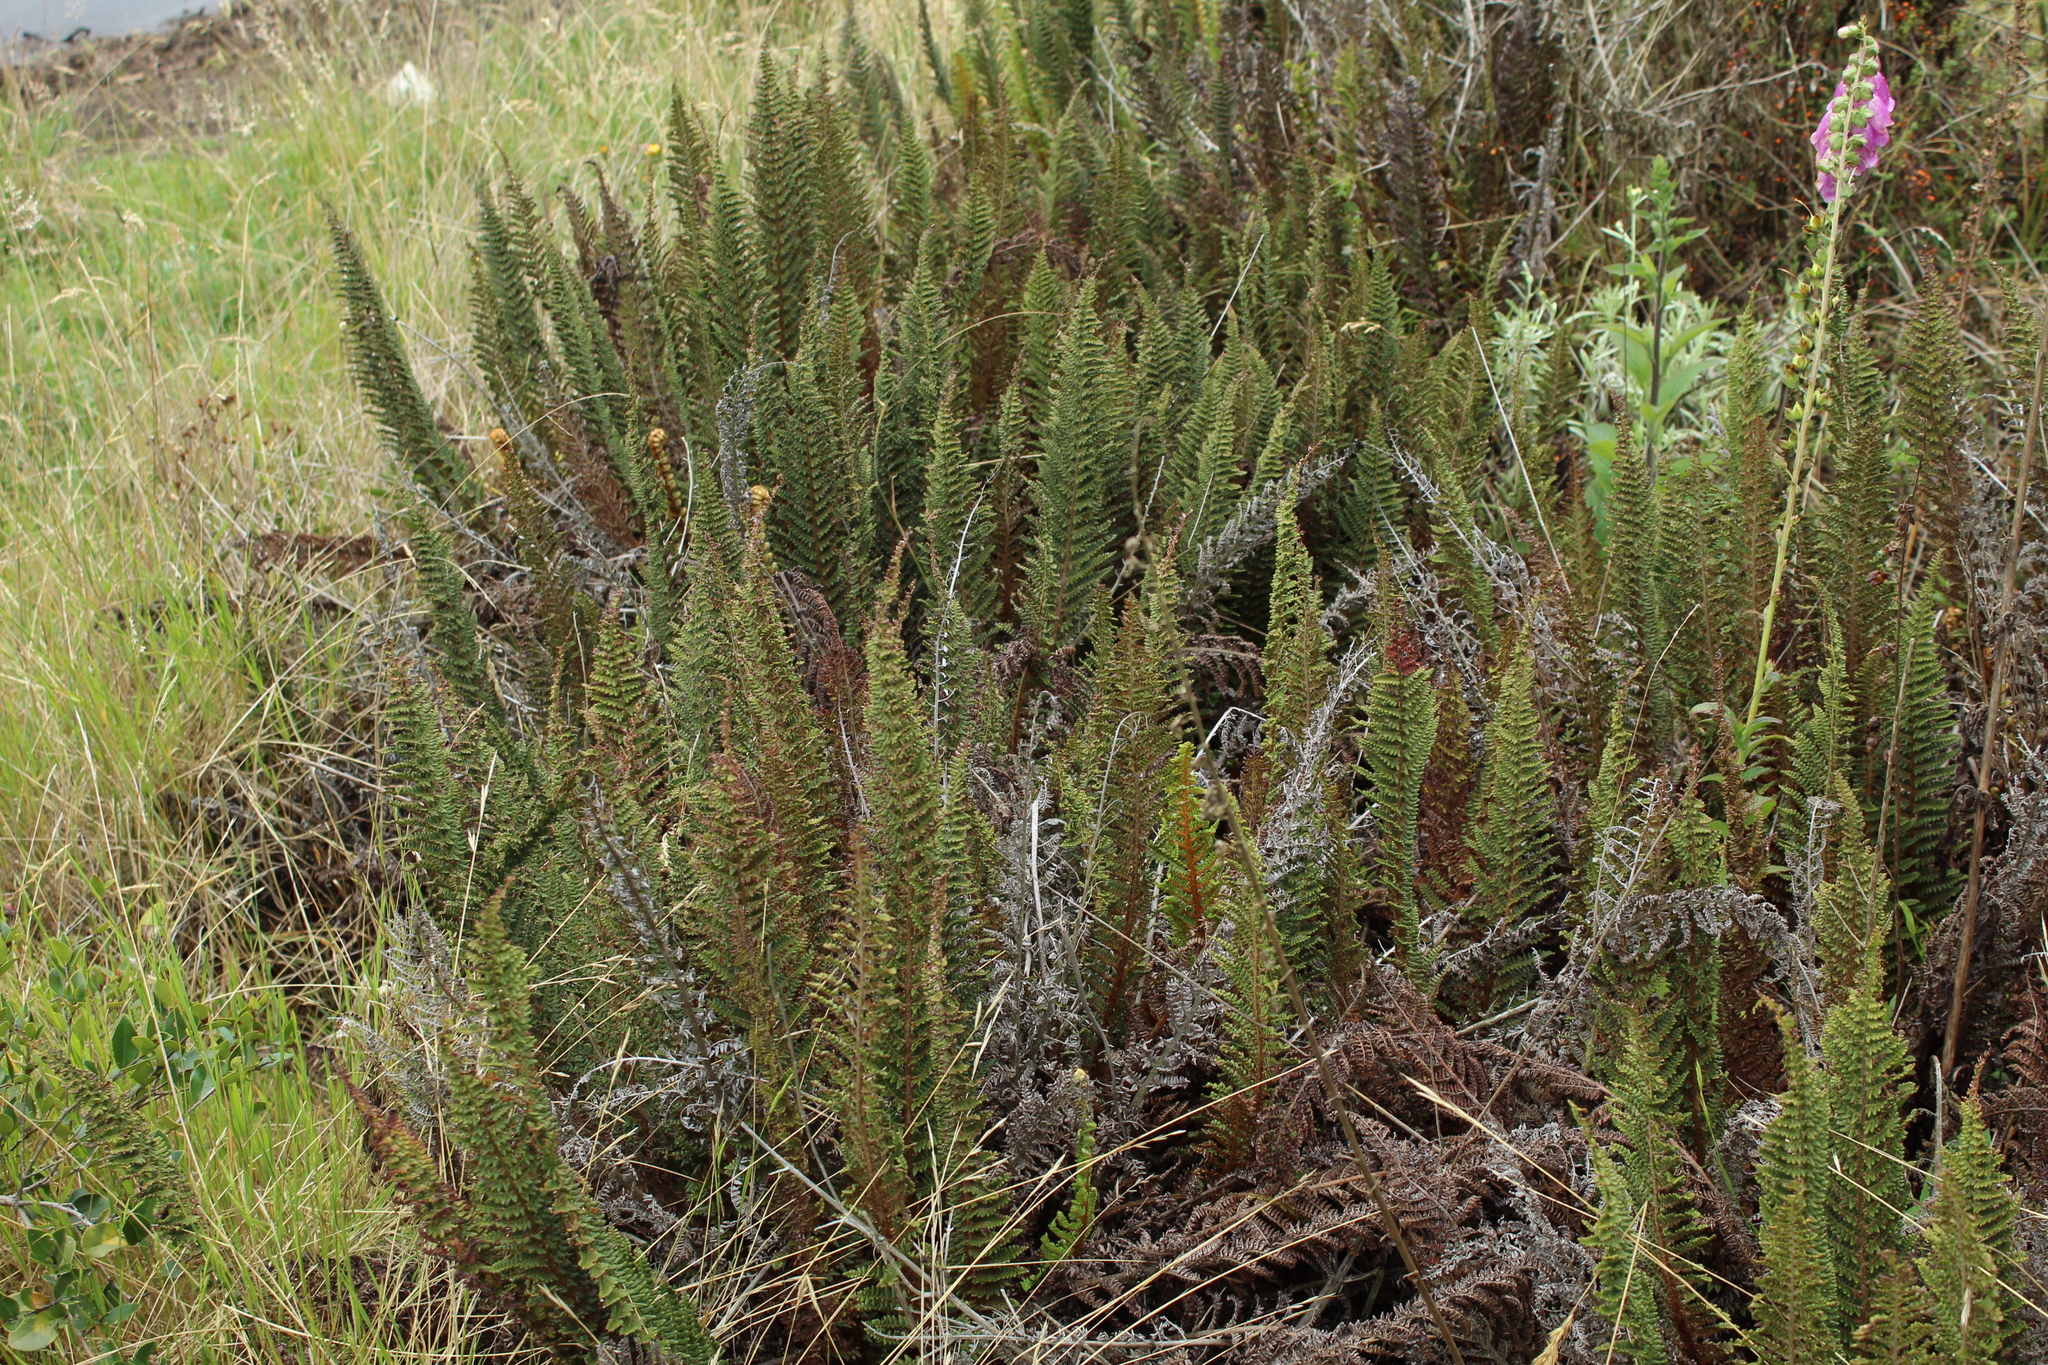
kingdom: Plantae
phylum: Tracheophyta
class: Polypodiopsida
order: Polypodiales
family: Dryopteridaceae
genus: Polystichum
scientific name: Polystichum orbiculatum
